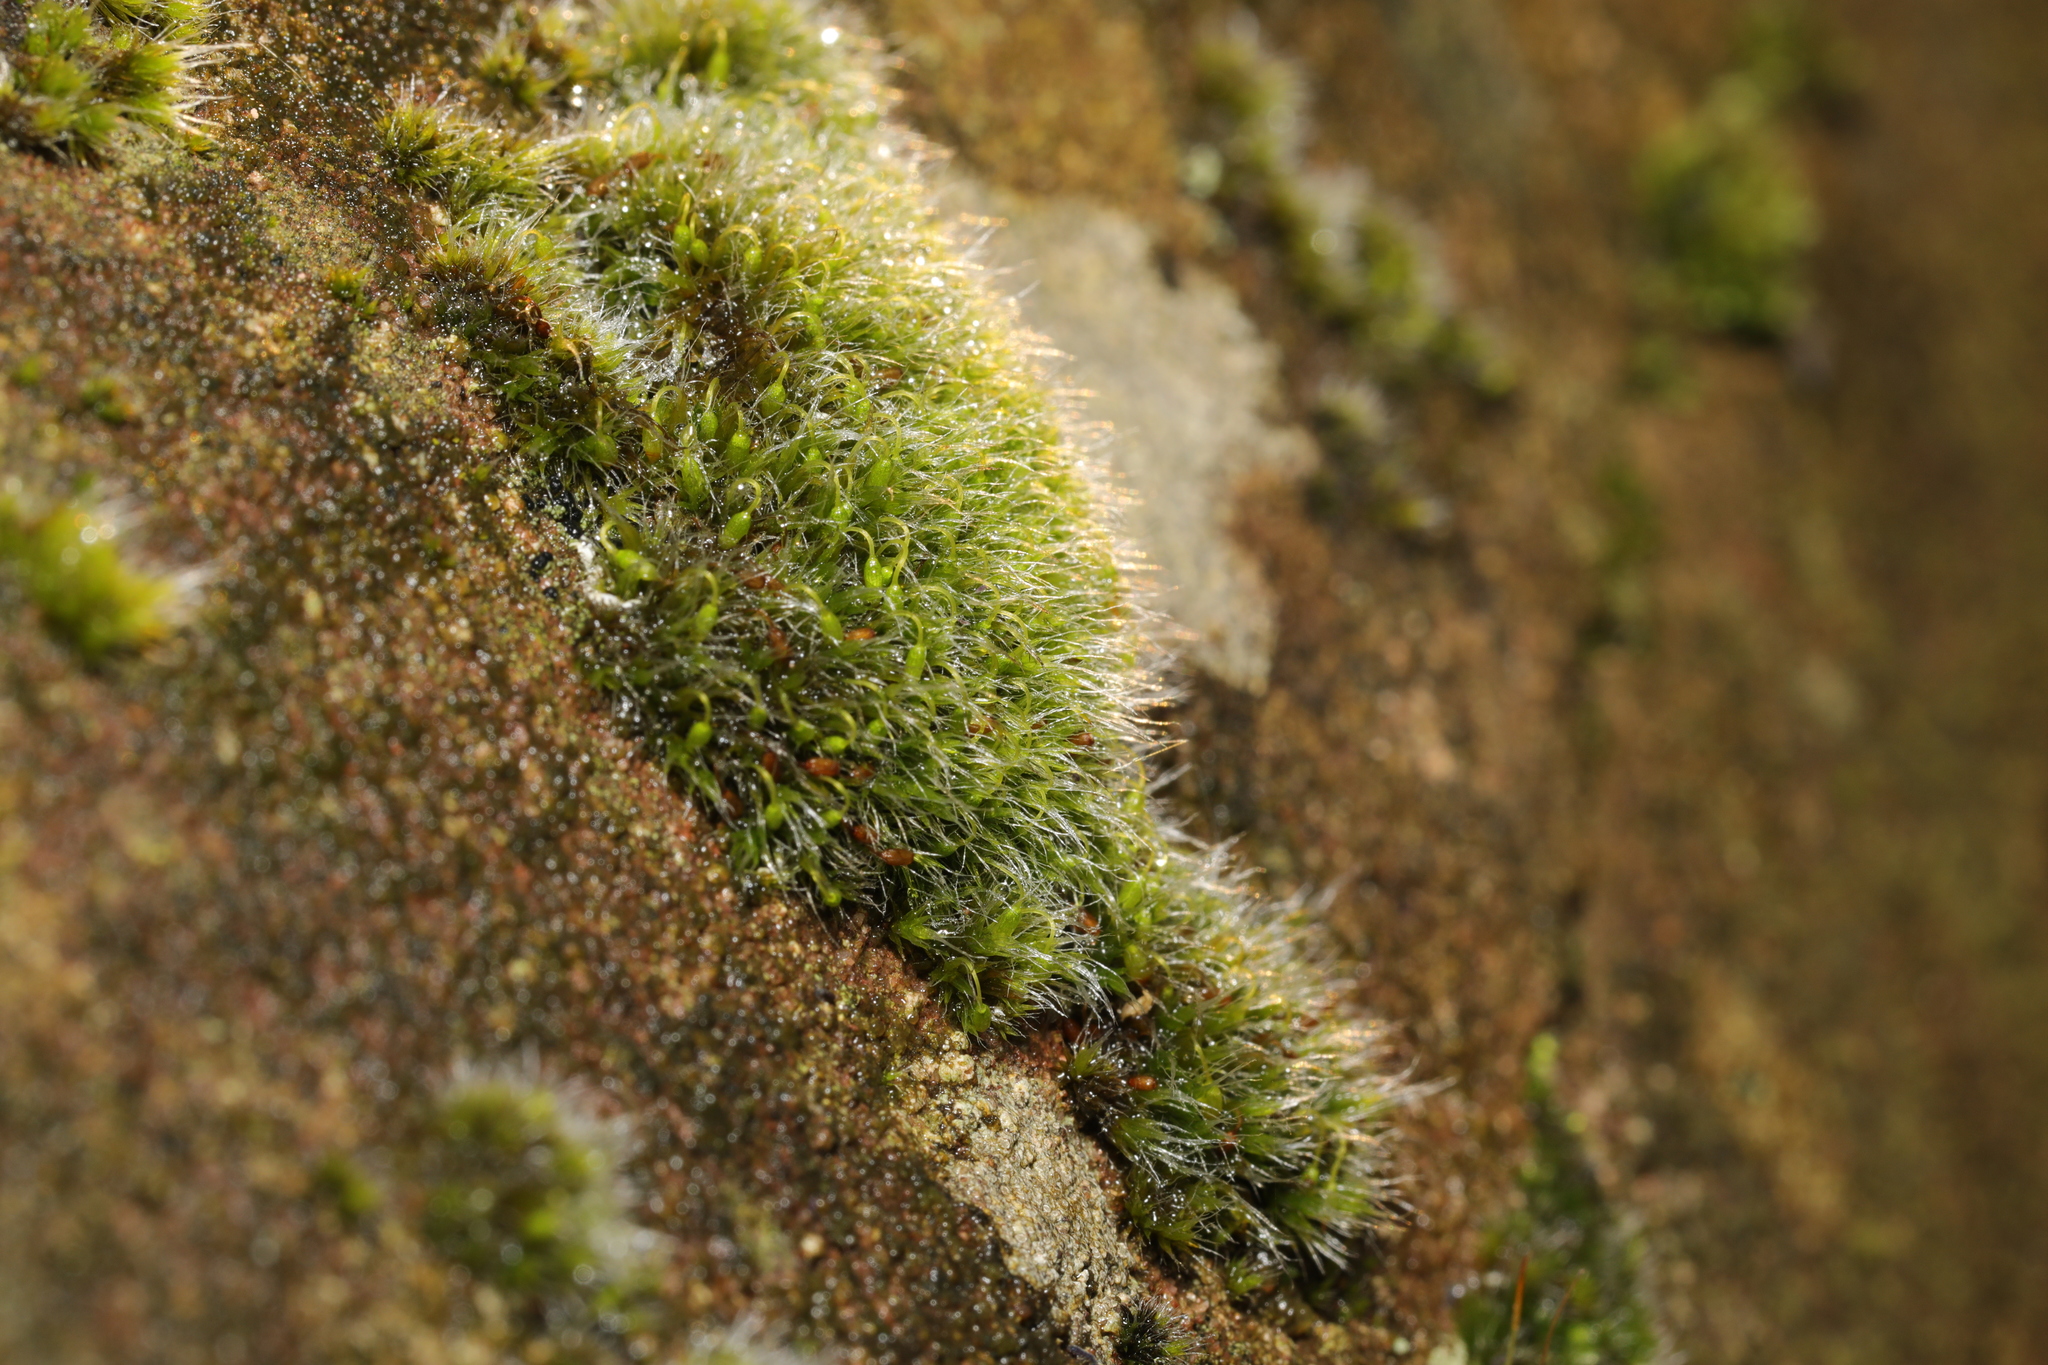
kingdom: Plantae
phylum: Bryophyta
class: Bryopsida
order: Grimmiales
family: Grimmiaceae
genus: Grimmia
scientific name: Grimmia pulvinata
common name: Grey-cushioned grimmia
